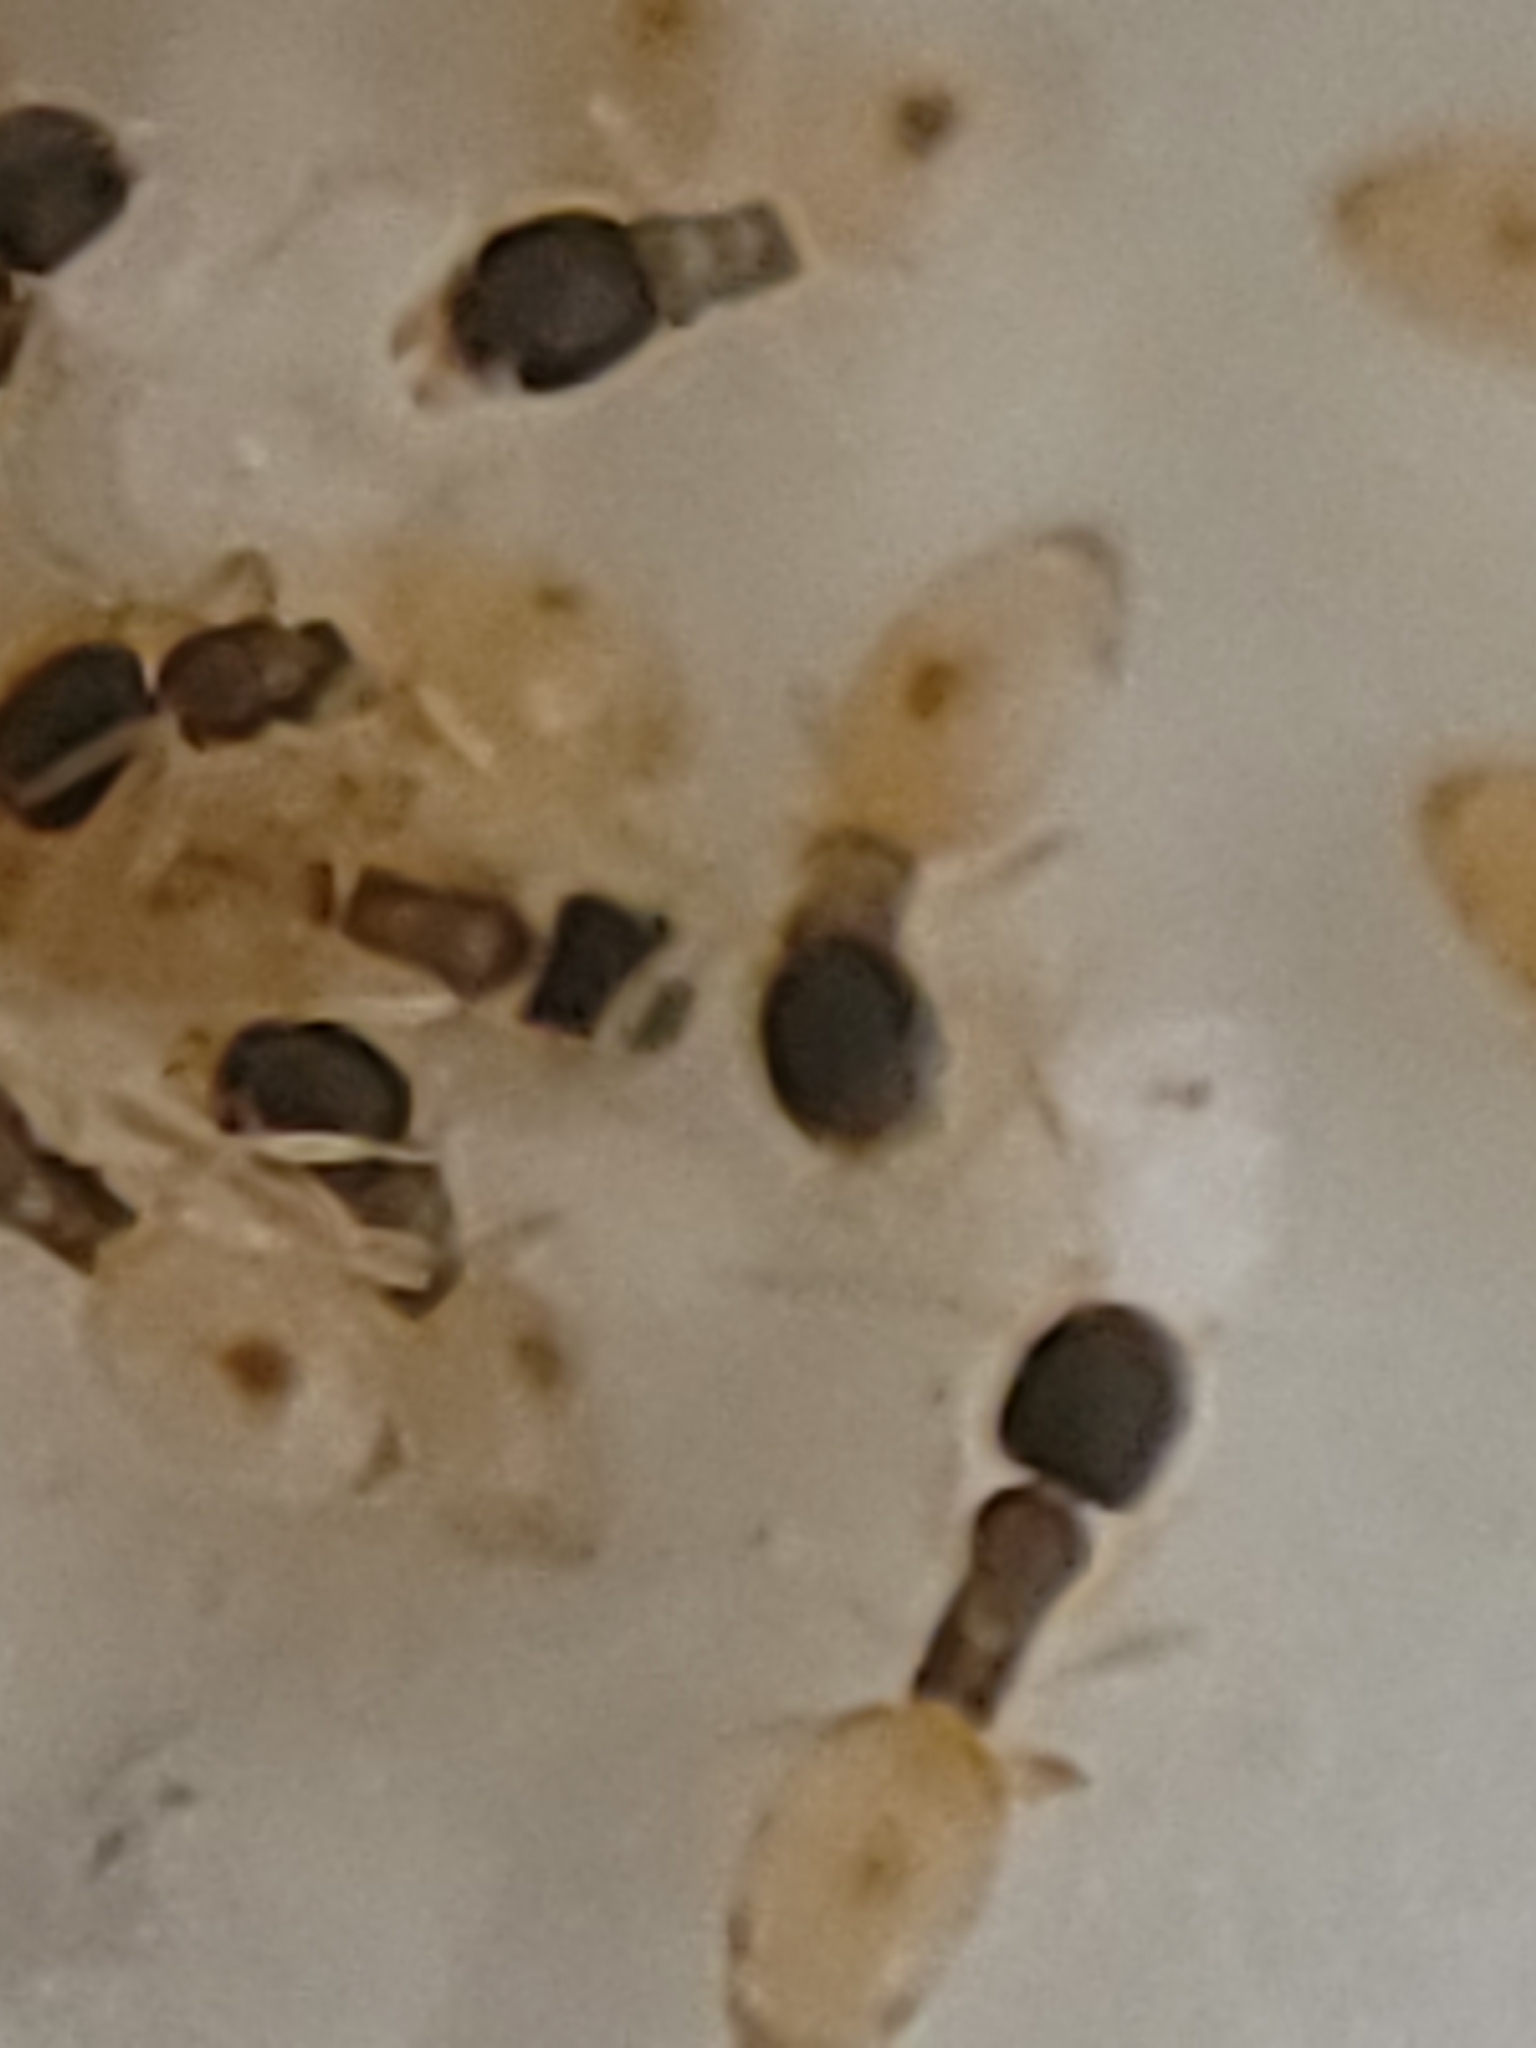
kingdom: Animalia
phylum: Arthropoda
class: Insecta
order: Hymenoptera
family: Formicidae
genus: Tapinoma
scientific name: Tapinoma melanocephalum
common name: Ghost ant
